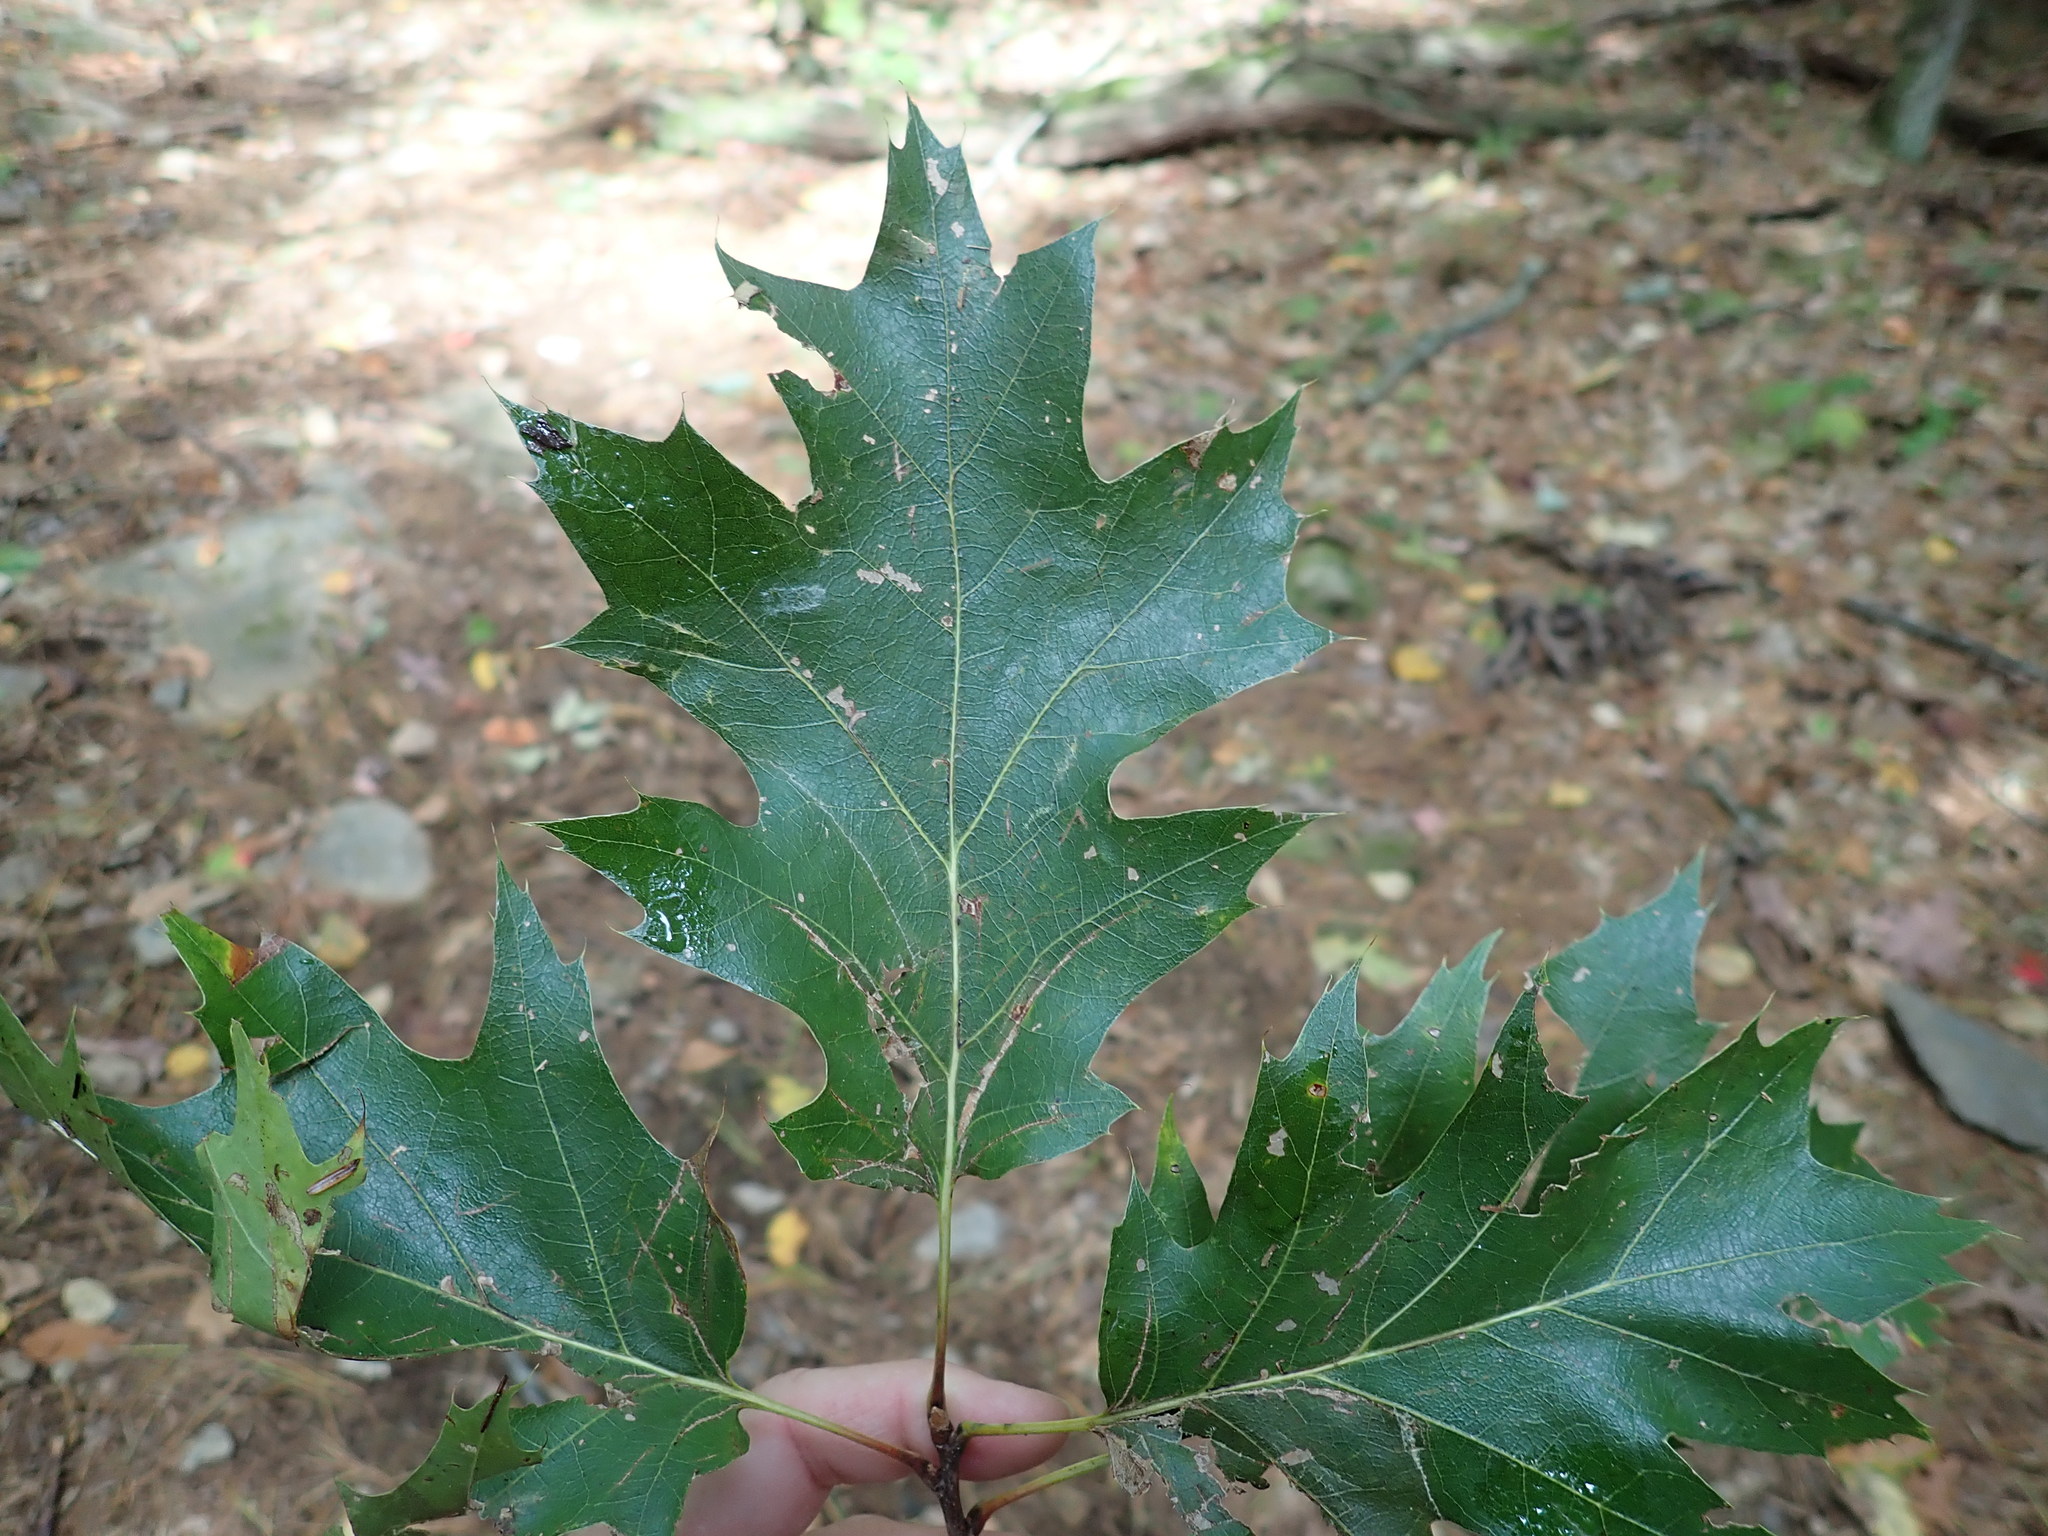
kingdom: Plantae
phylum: Tracheophyta
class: Magnoliopsida
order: Fagales
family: Fagaceae
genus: Quercus
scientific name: Quercus rubra
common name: Red oak
